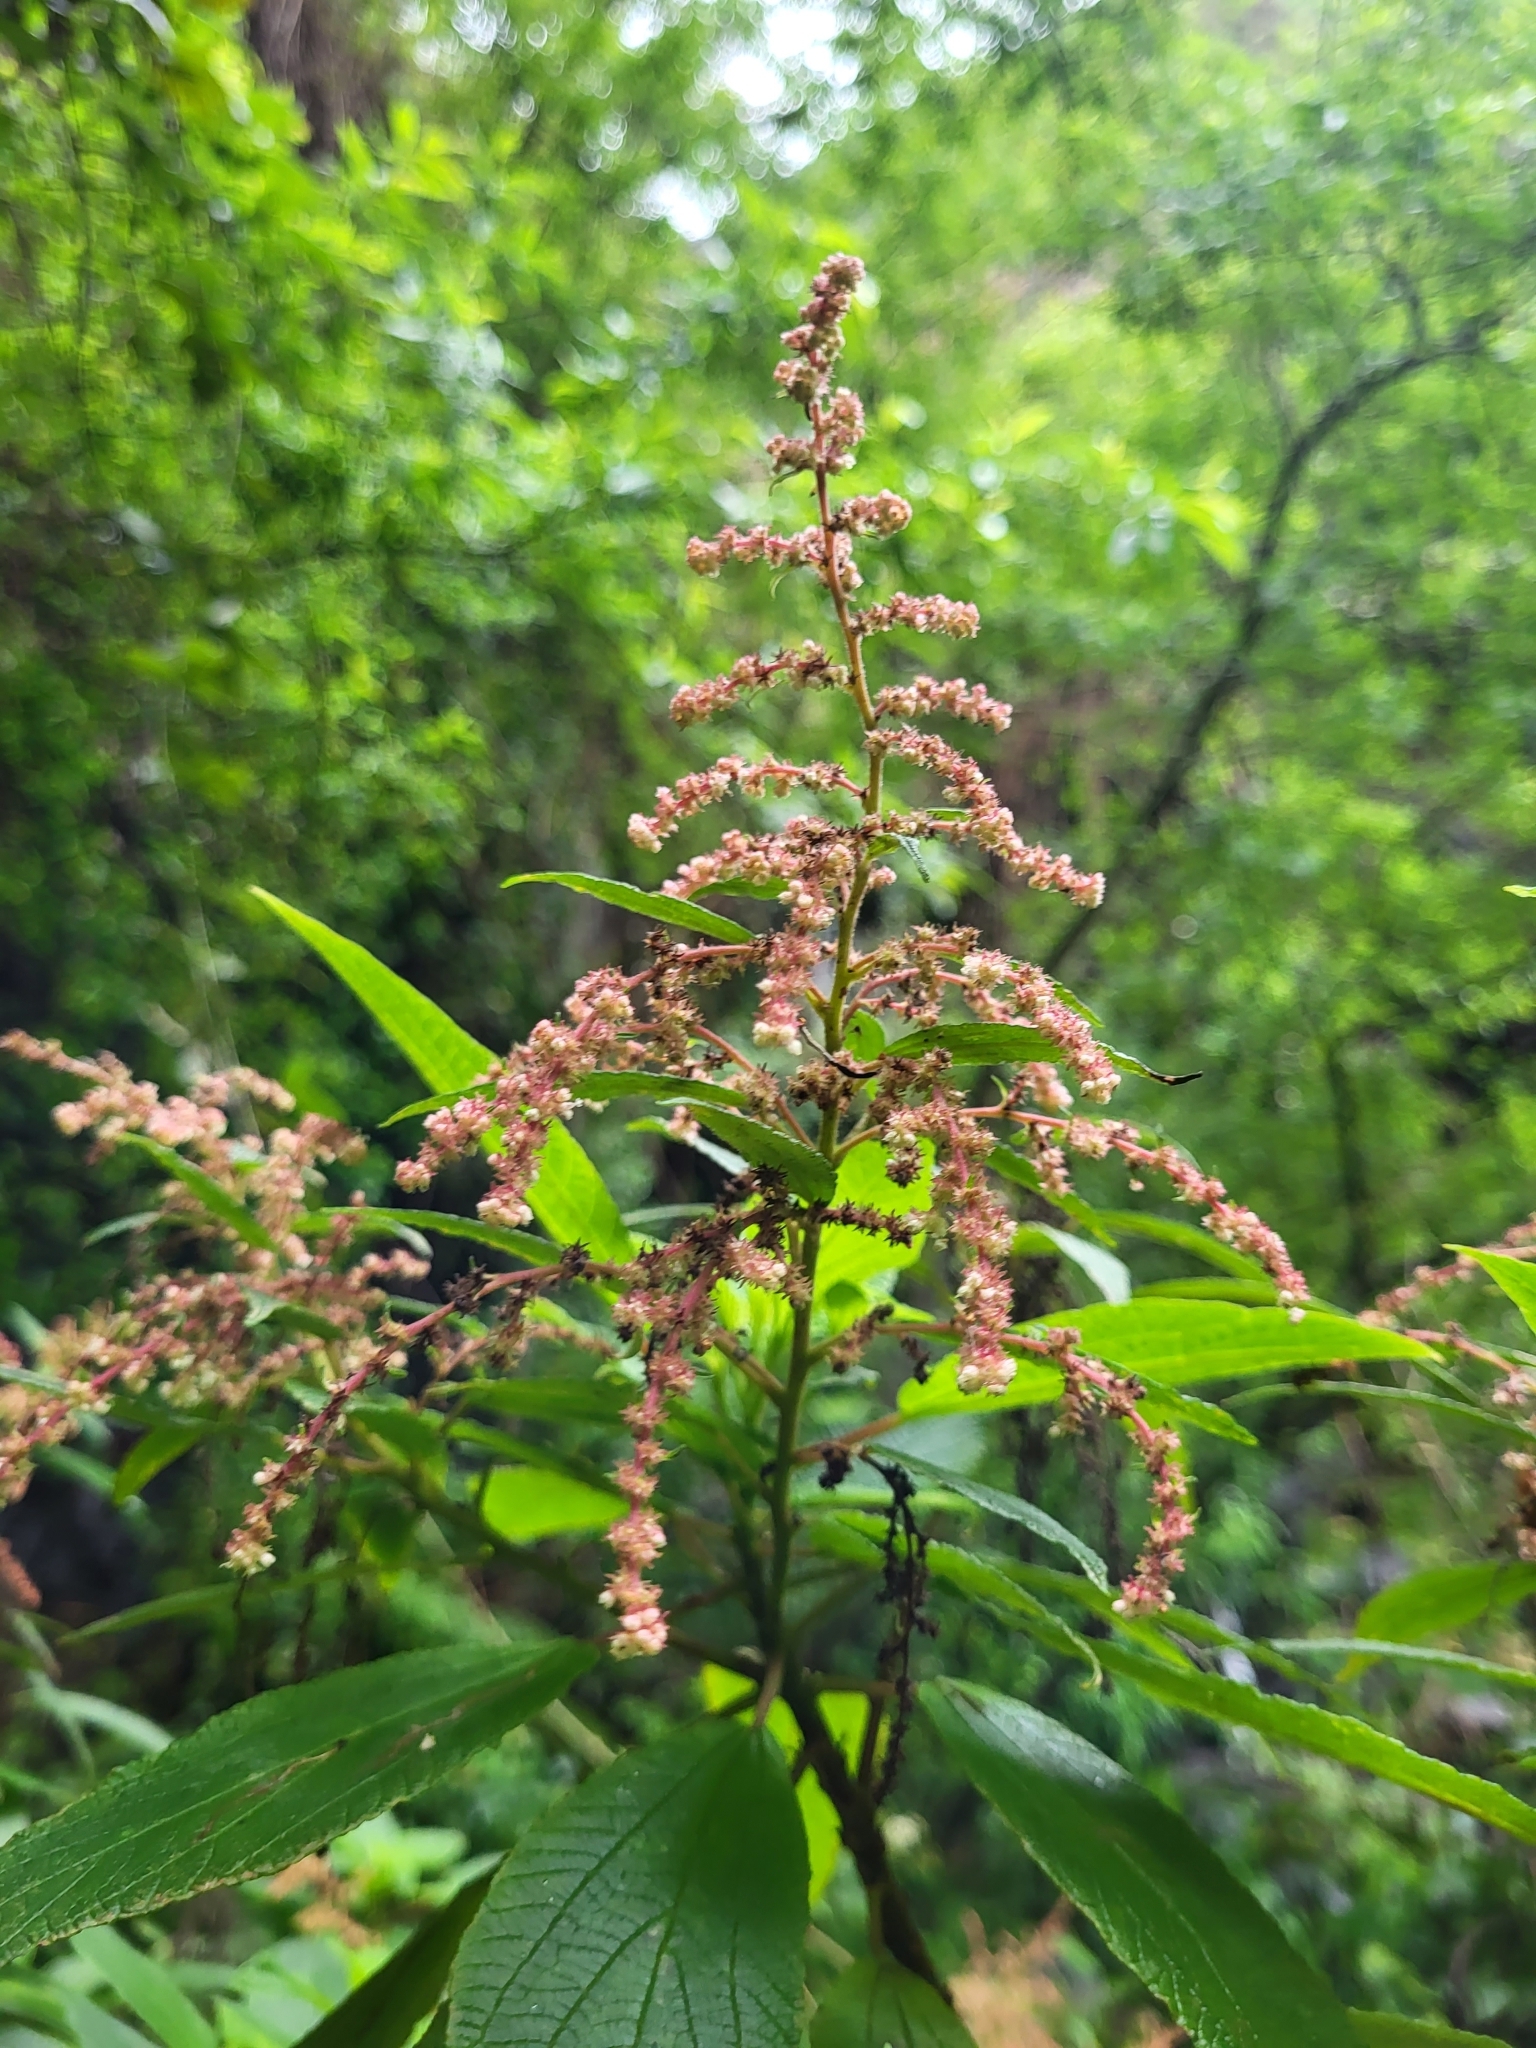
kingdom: Plantae
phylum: Tracheophyta
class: Magnoliopsida
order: Rosales
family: Urticaceae
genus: Gesnouinia
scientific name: Gesnouinia arborea
